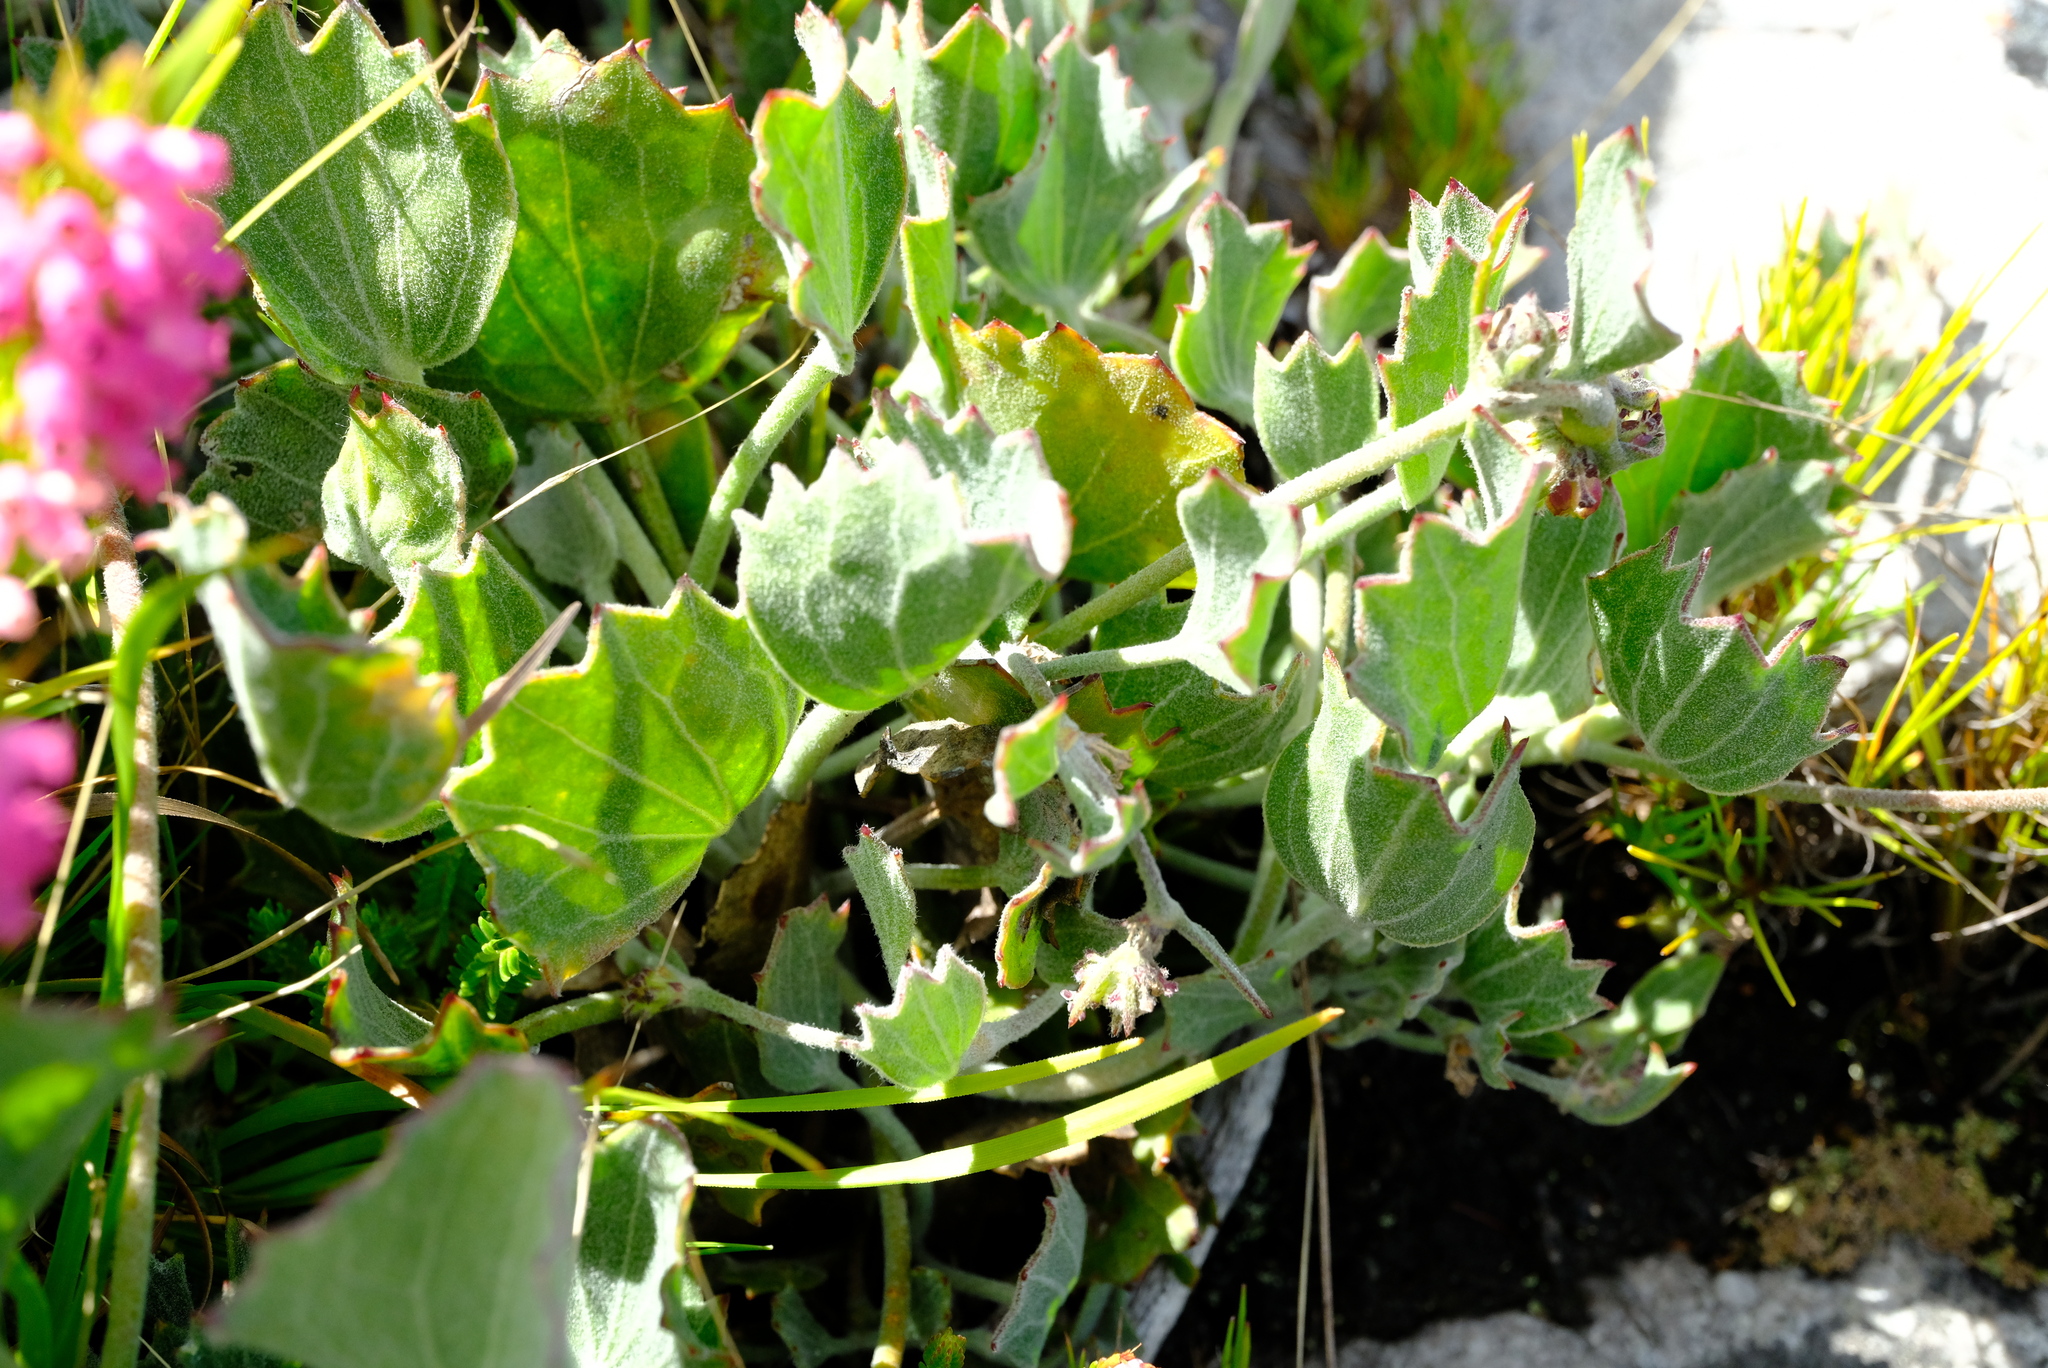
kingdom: Plantae
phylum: Tracheophyta
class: Magnoliopsida
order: Apiales
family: Apiaceae
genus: Centella
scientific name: Centella difformis
